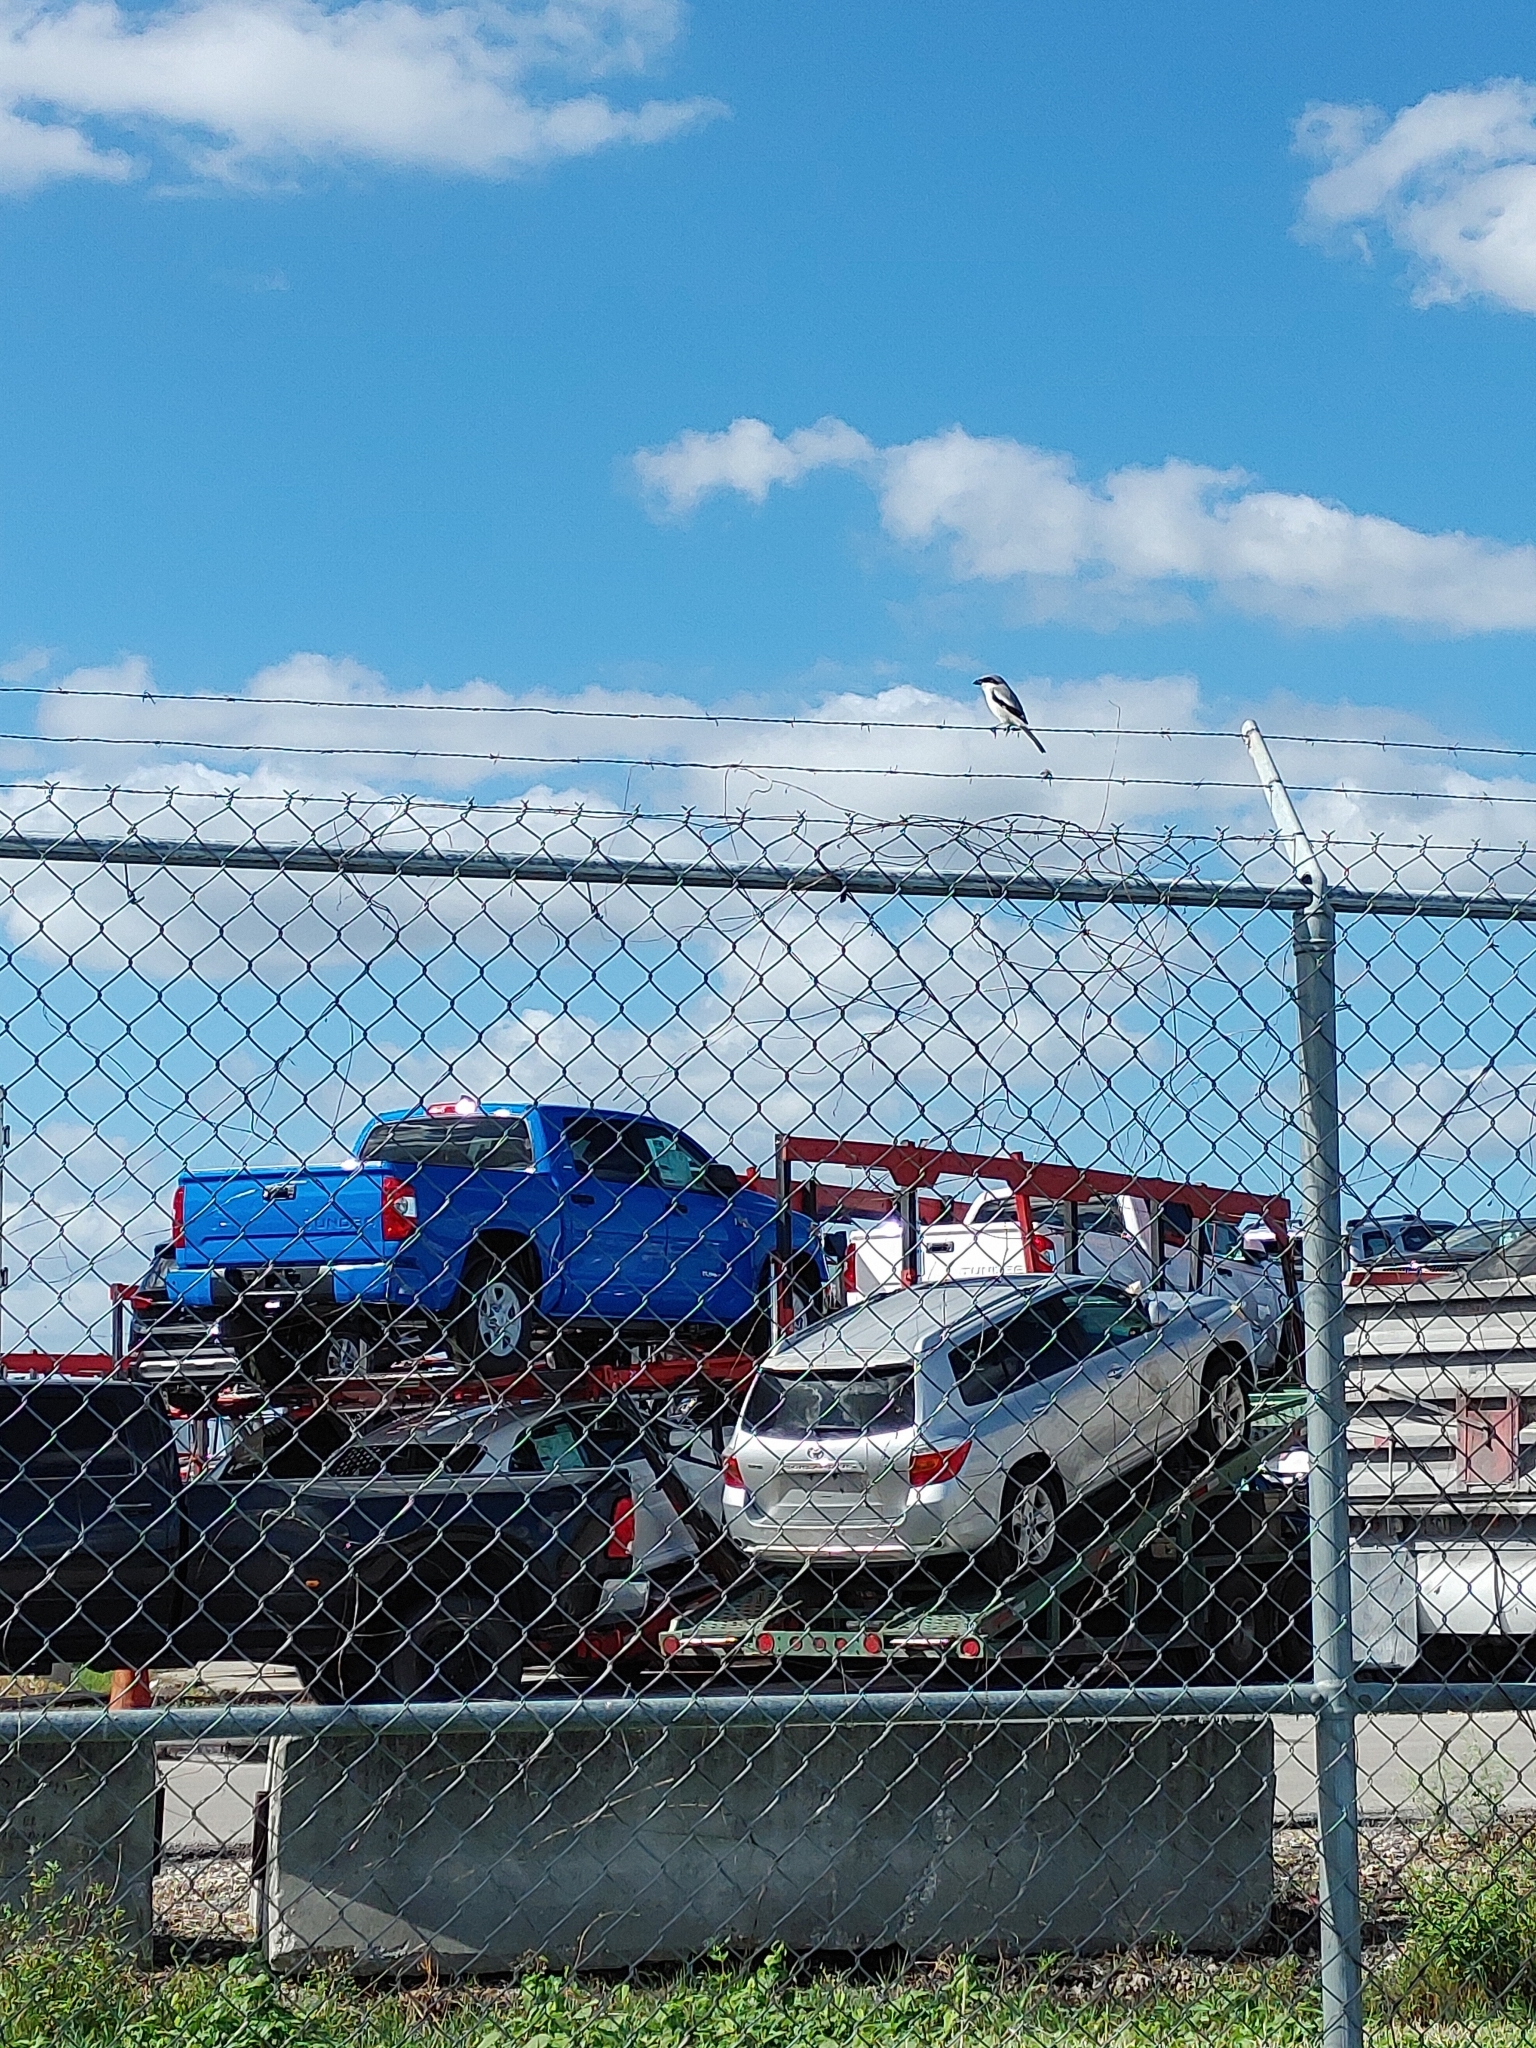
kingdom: Animalia
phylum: Chordata
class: Aves
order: Passeriformes
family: Laniidae
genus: Lanius
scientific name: Lanius ludovicianus
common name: Loggerhead shrike
